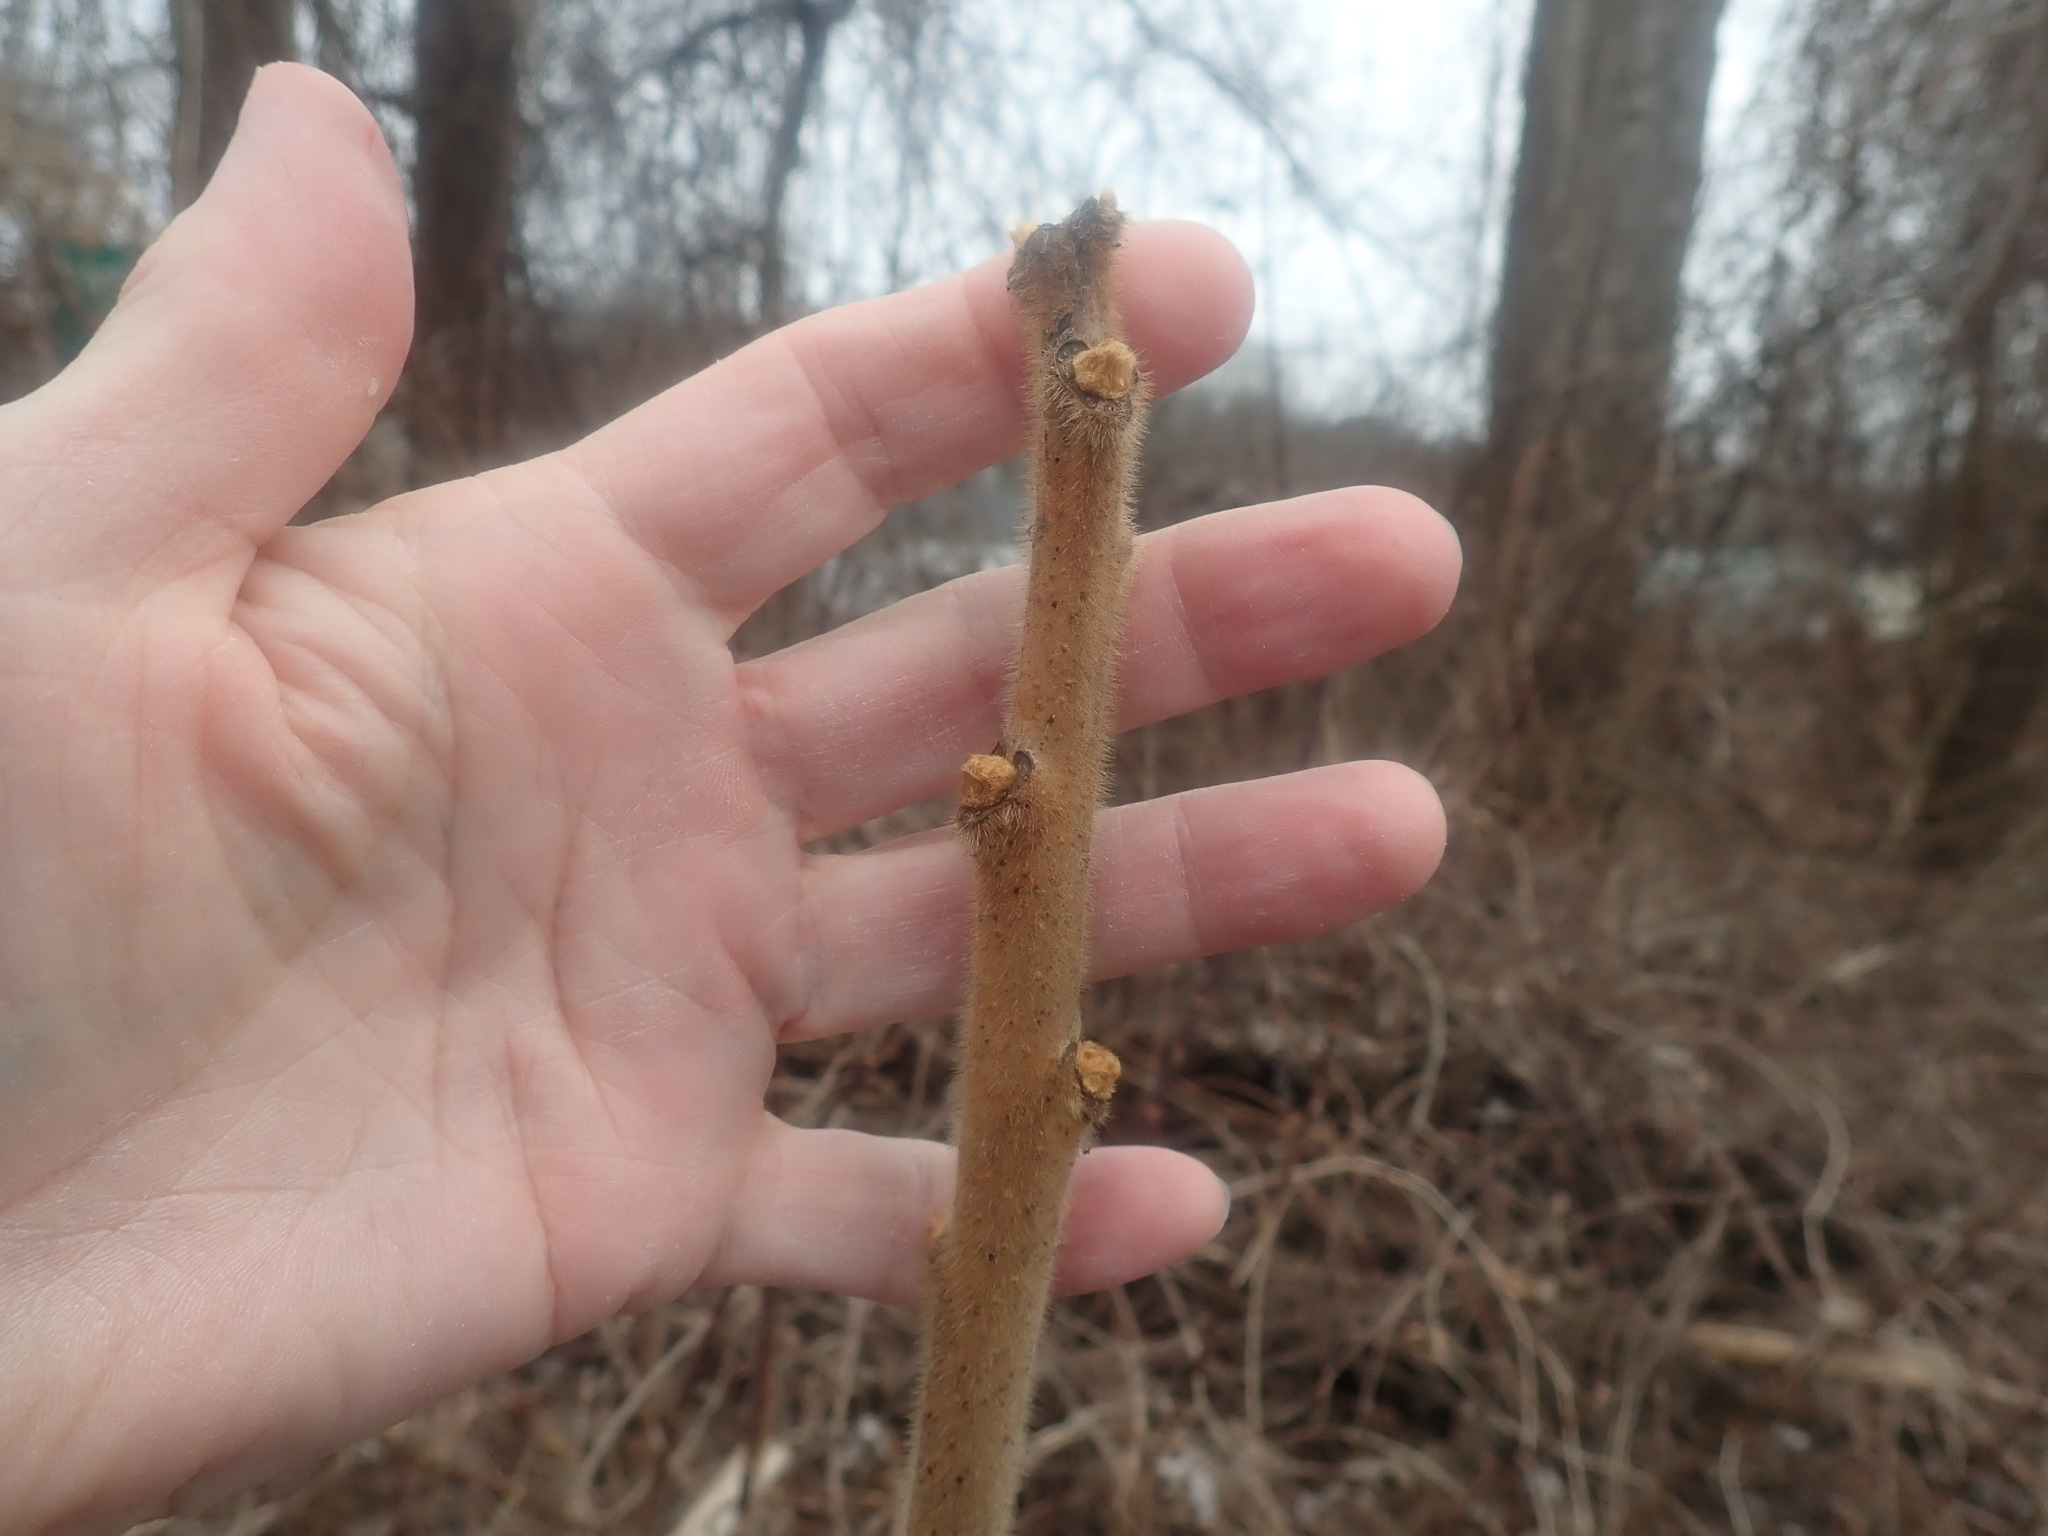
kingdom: Plantae
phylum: Tracheophyta
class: Magnoliopsida
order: Sapindales
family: Anacardiaceae
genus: Rhus
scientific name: Rhus typhina
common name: Staghorn sumac
